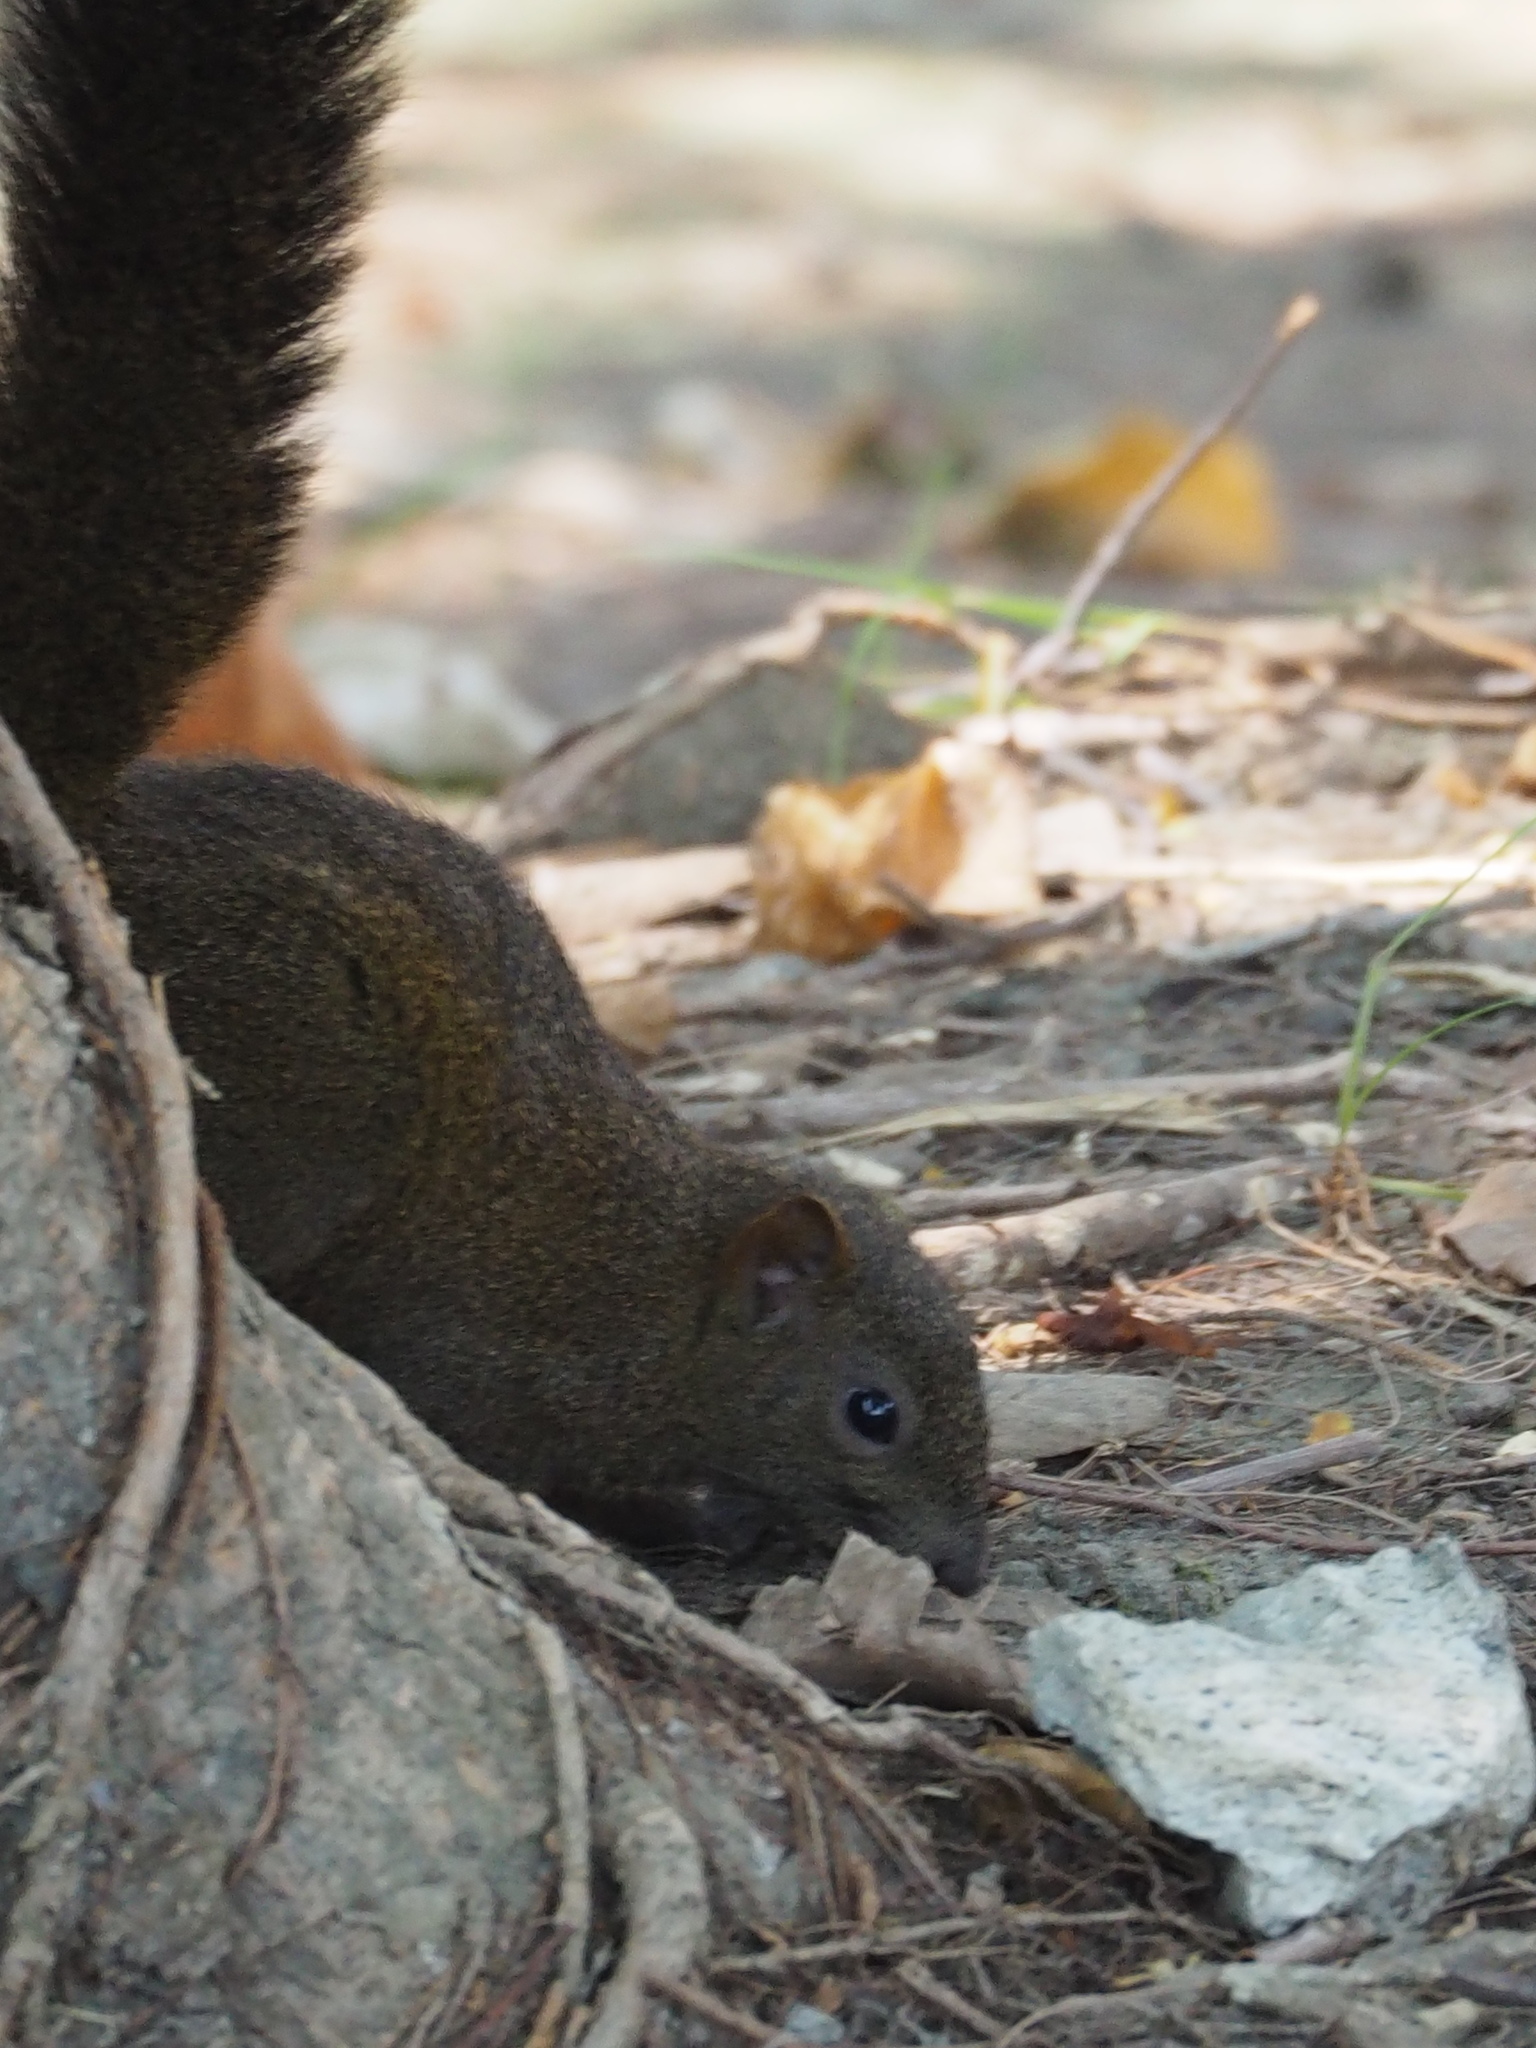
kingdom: Animalia
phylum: Chordata
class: Mammalia
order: Rodentia
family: Sciuridae
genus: Callosciurus
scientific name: Callosciurus erythraeus
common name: Pallas's squirrel
